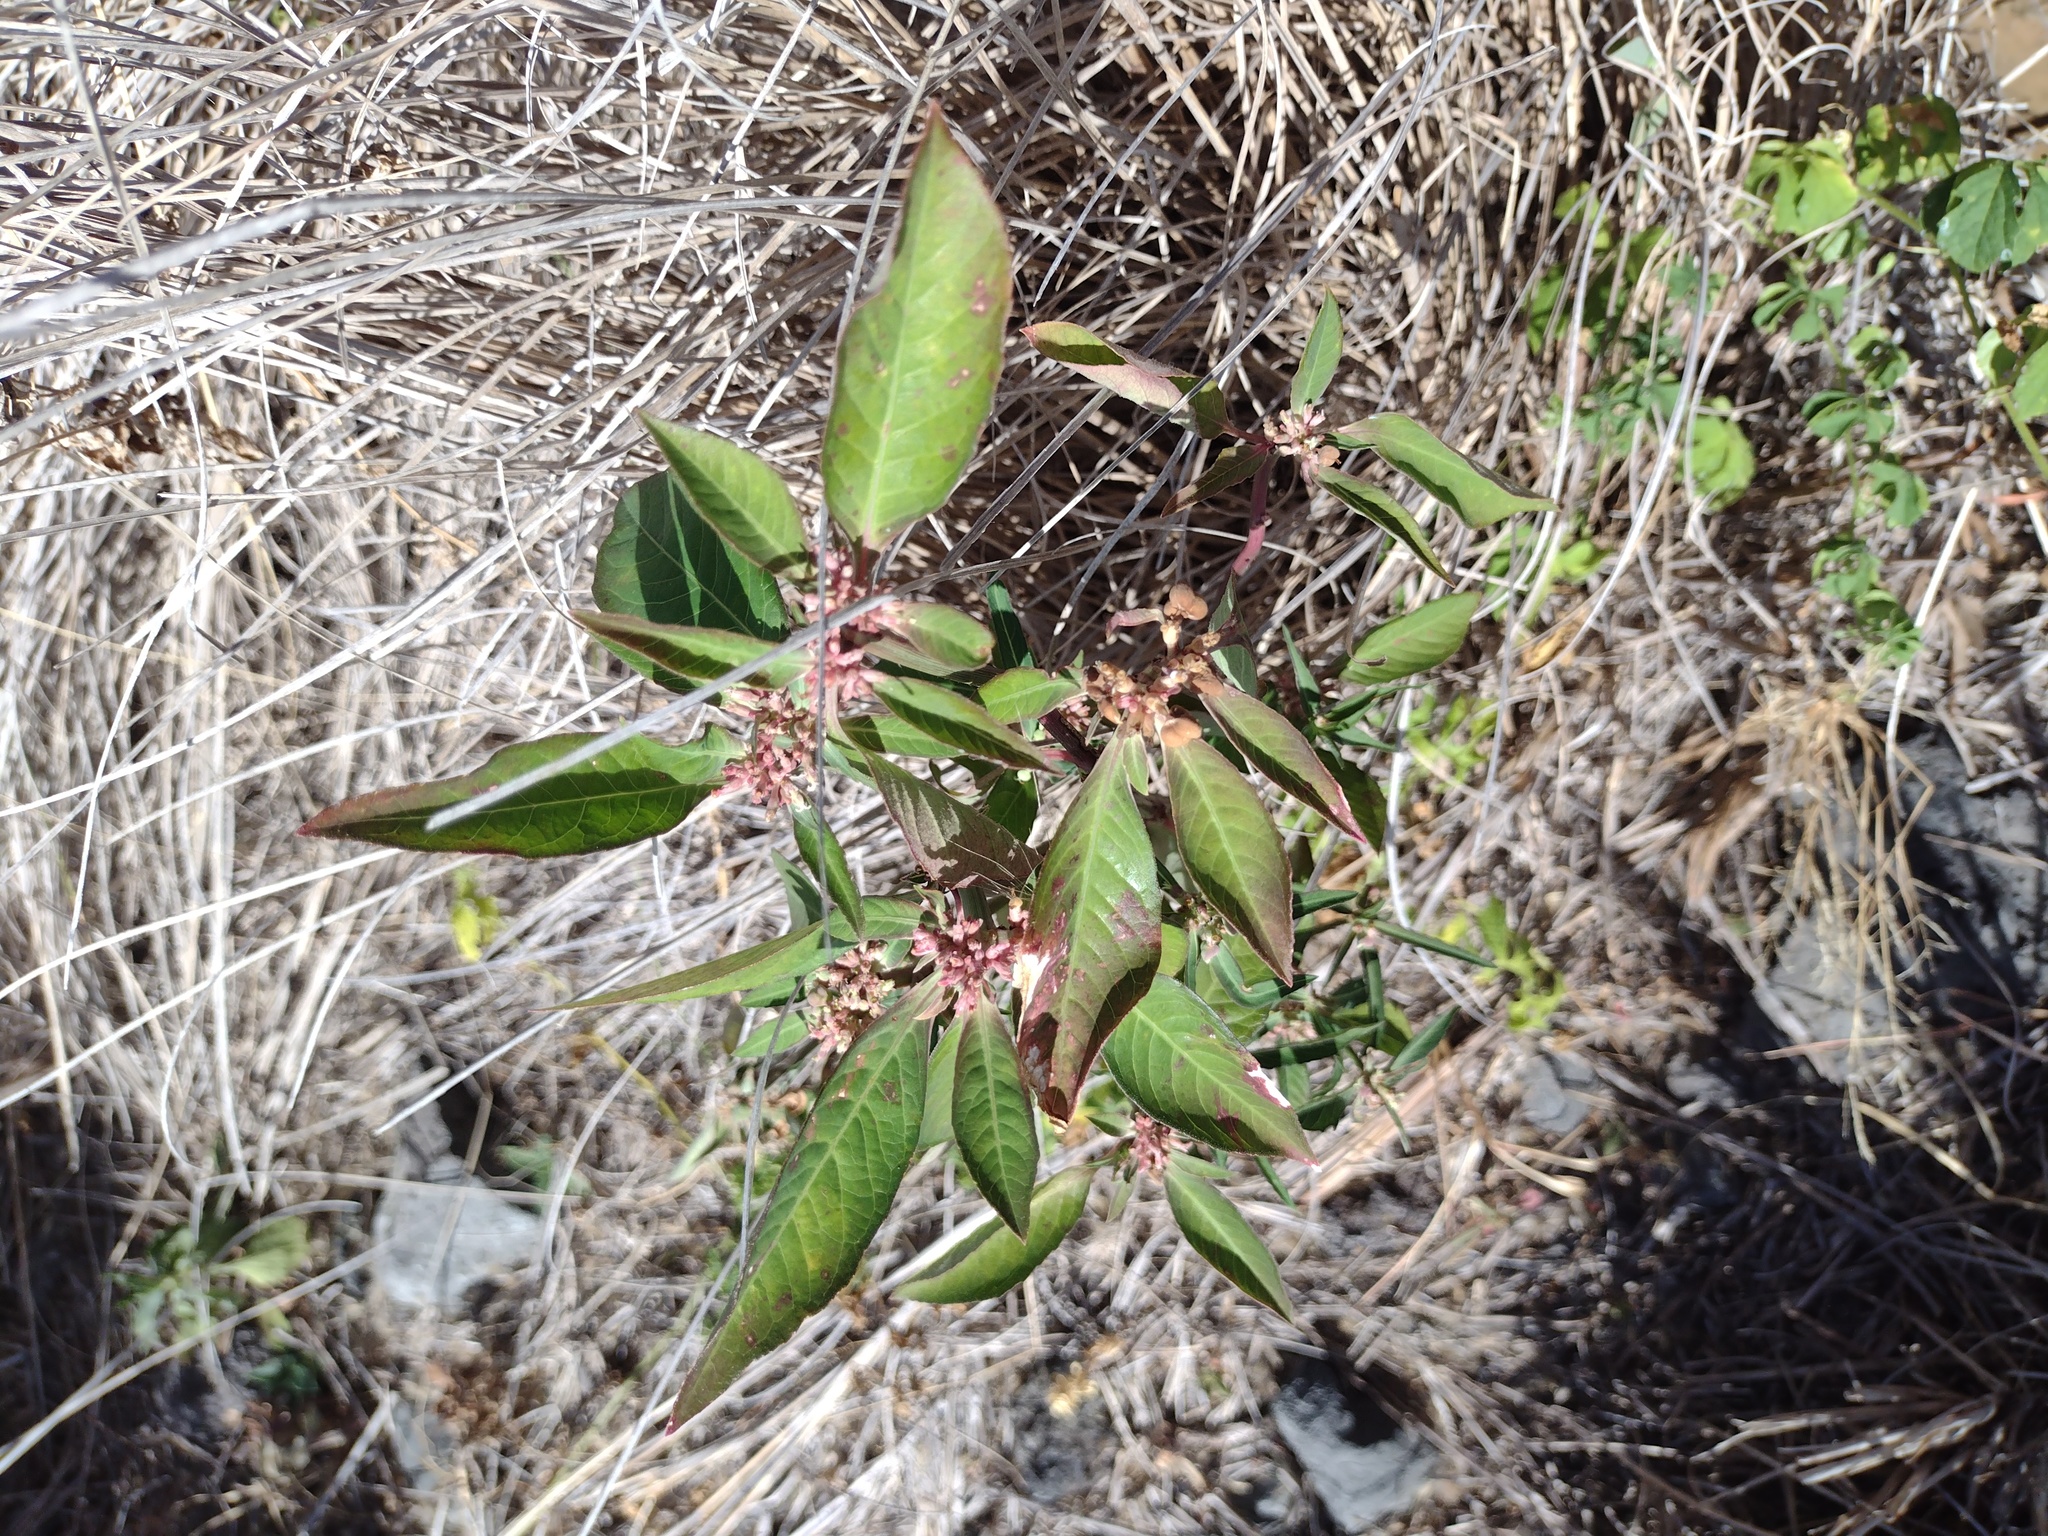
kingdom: Plantae
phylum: Tracheophyta
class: Magnoliopsida
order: Malpighiales
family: Euphorbiaceae
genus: Euphorbia
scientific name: Euphorbia heterophylla
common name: Mexican fireplant
